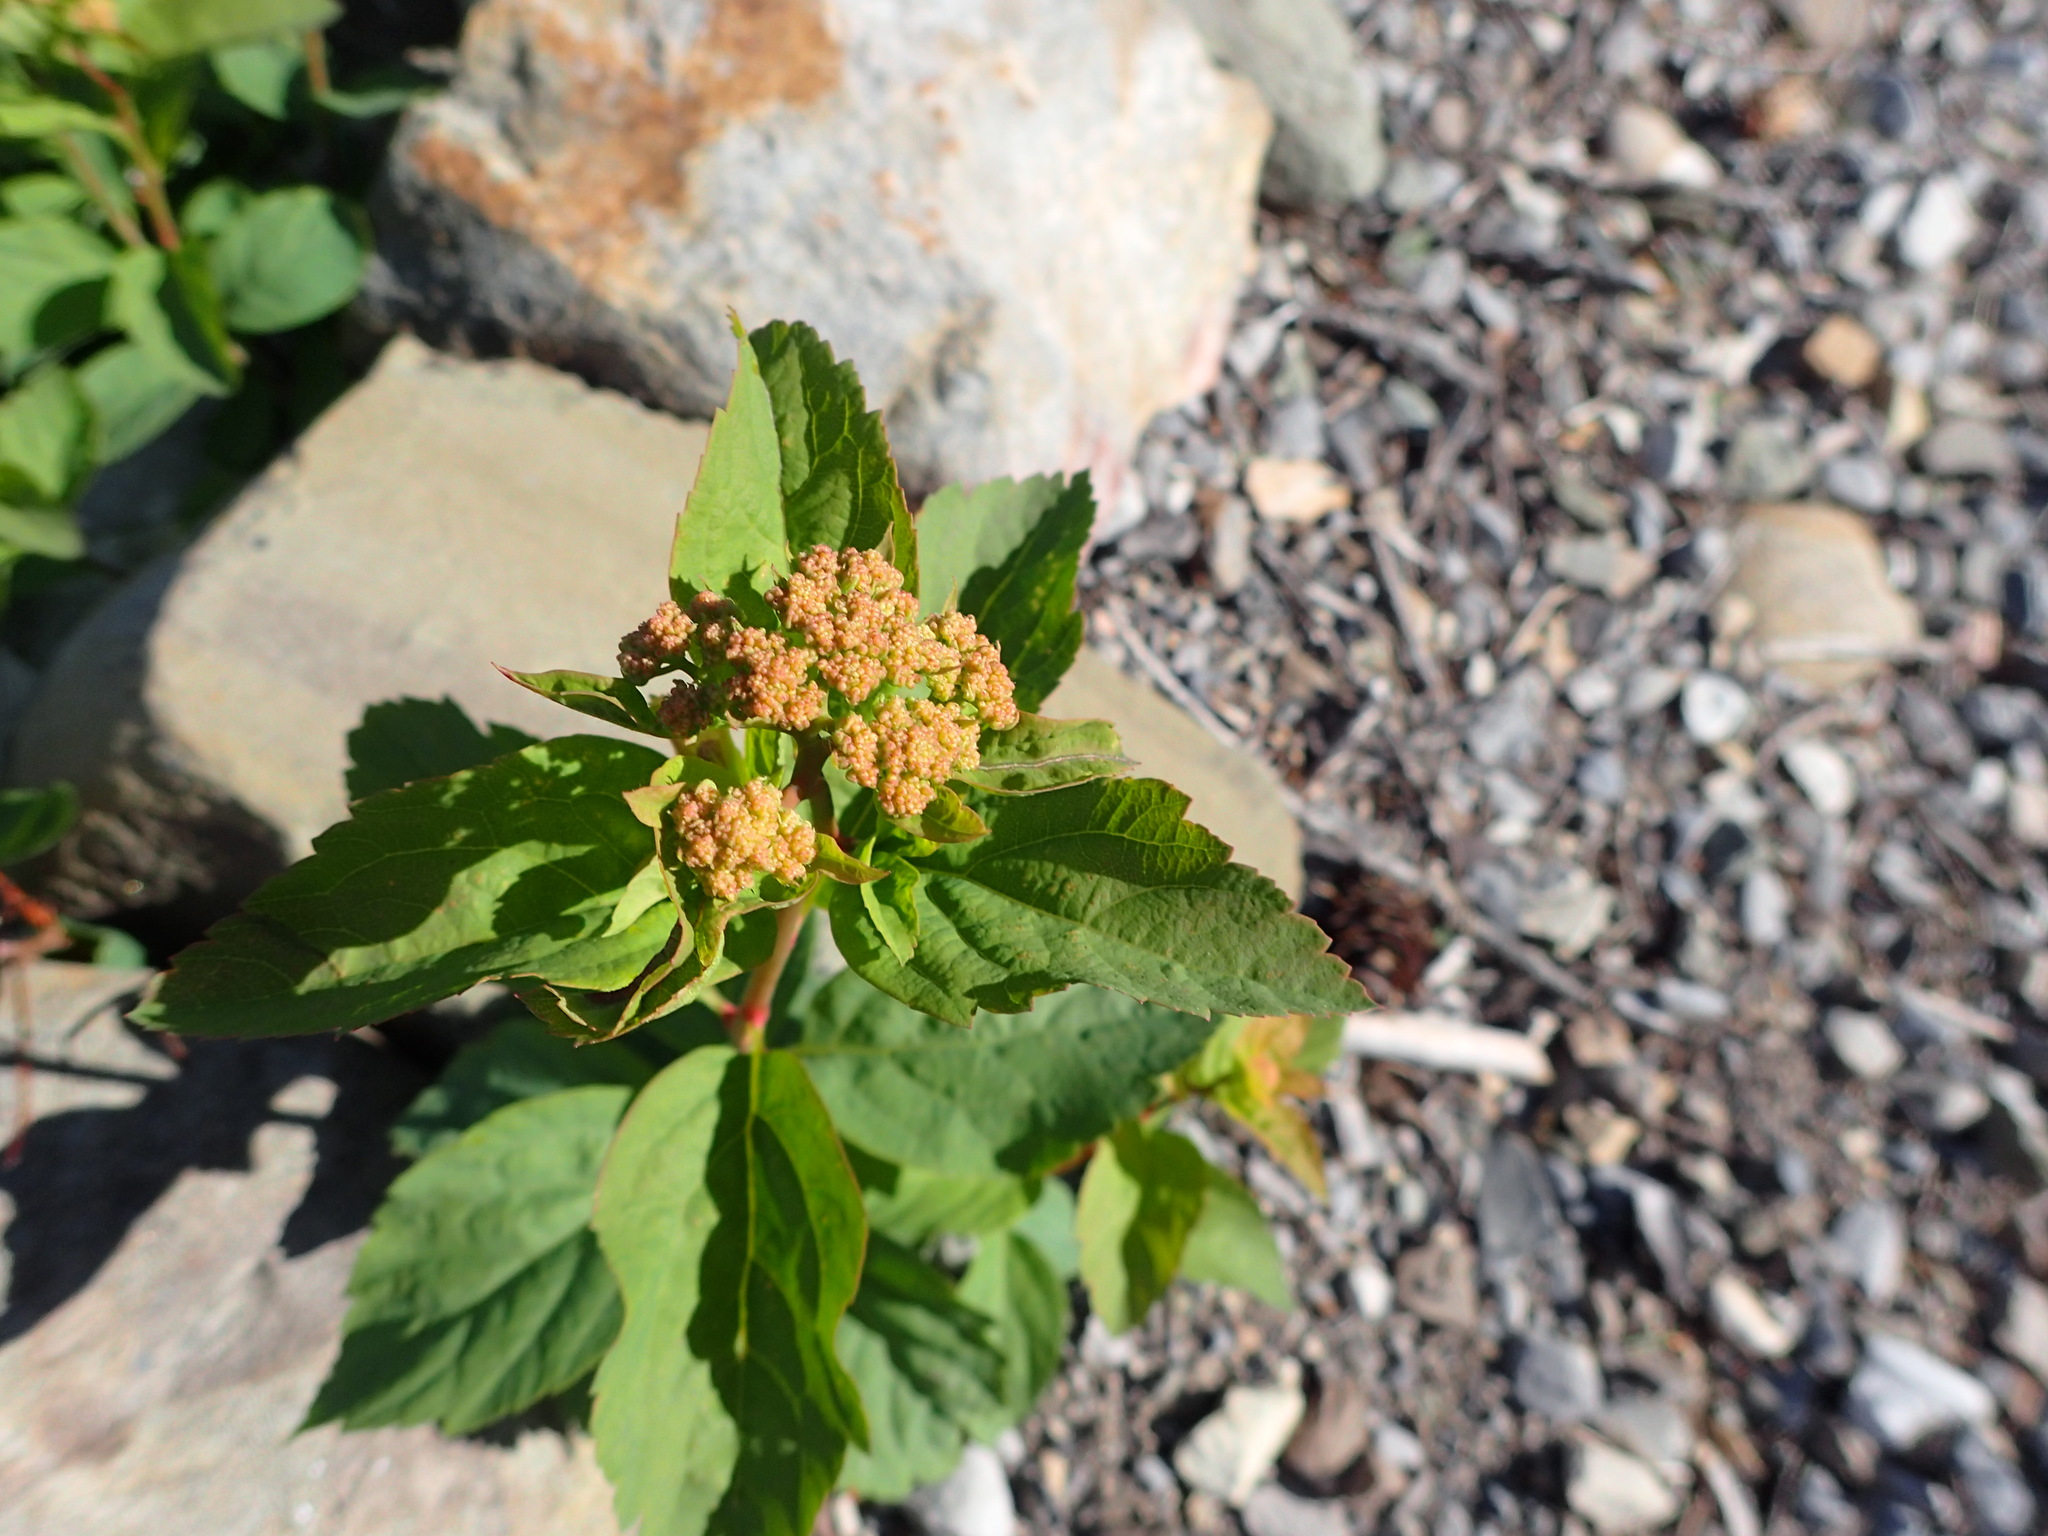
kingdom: Plantae
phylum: Tracheophyta
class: Magnoliopsida
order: Rosales
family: Rosaceae
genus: Spiraea
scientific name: Spiraea splendens
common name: Subalpine meadowsweet
